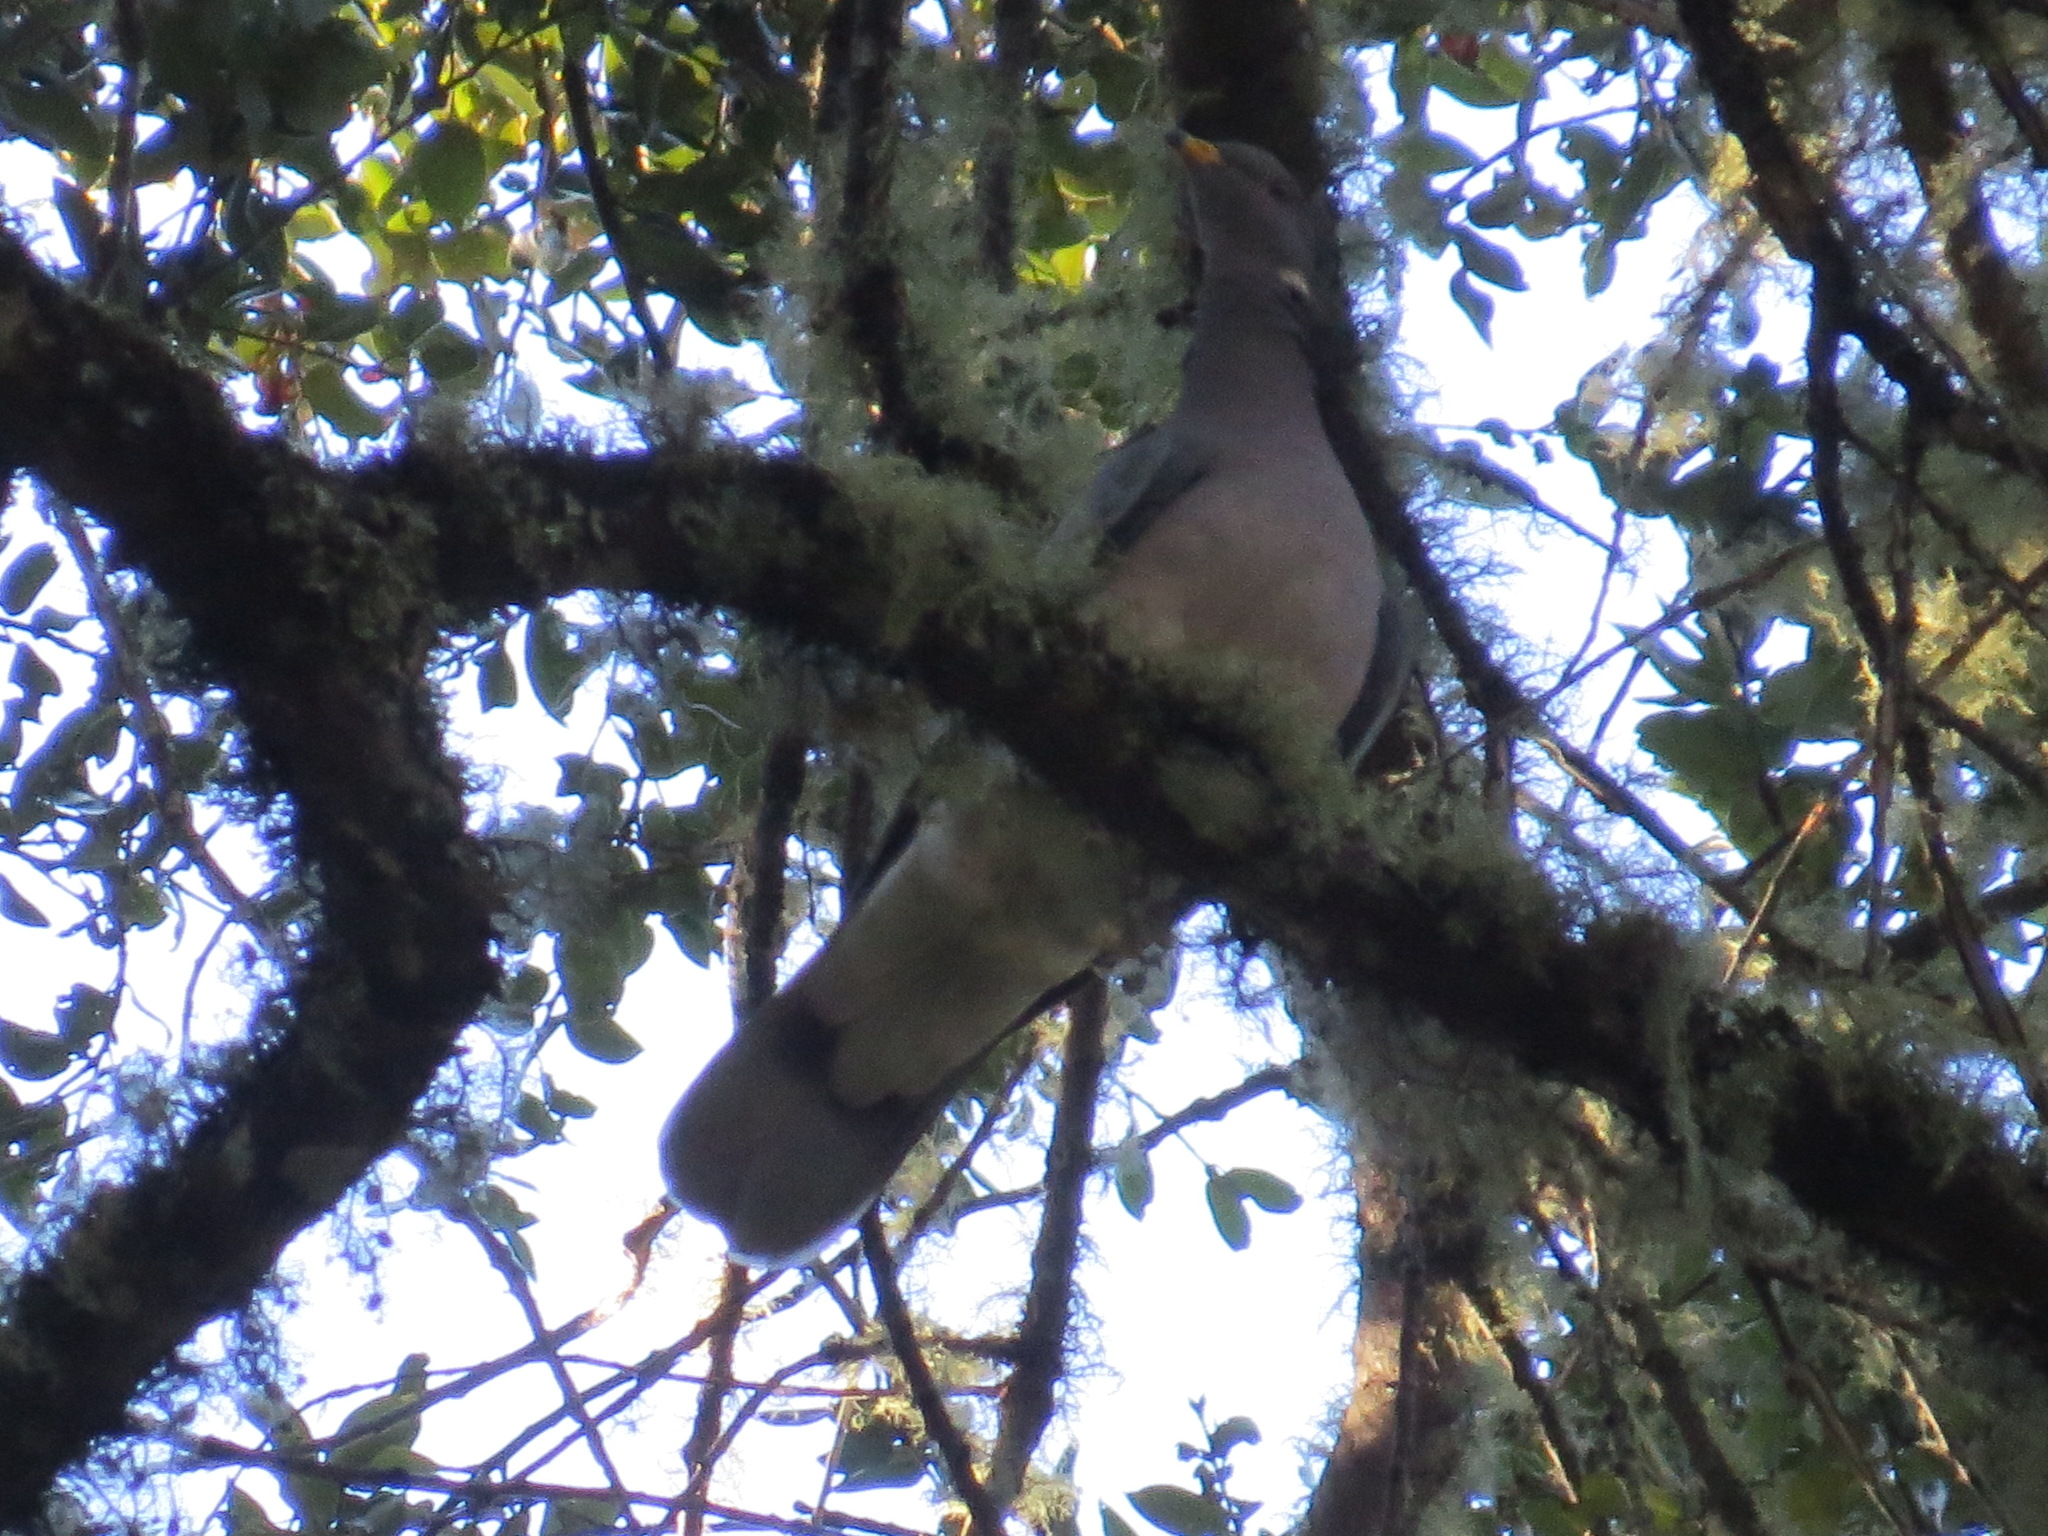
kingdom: Animalia
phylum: Chordata
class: Aves
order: Columbiformes
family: Columbidae
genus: Patagioenas
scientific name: Patagioenas fasciata
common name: Band-tailed pigeon
